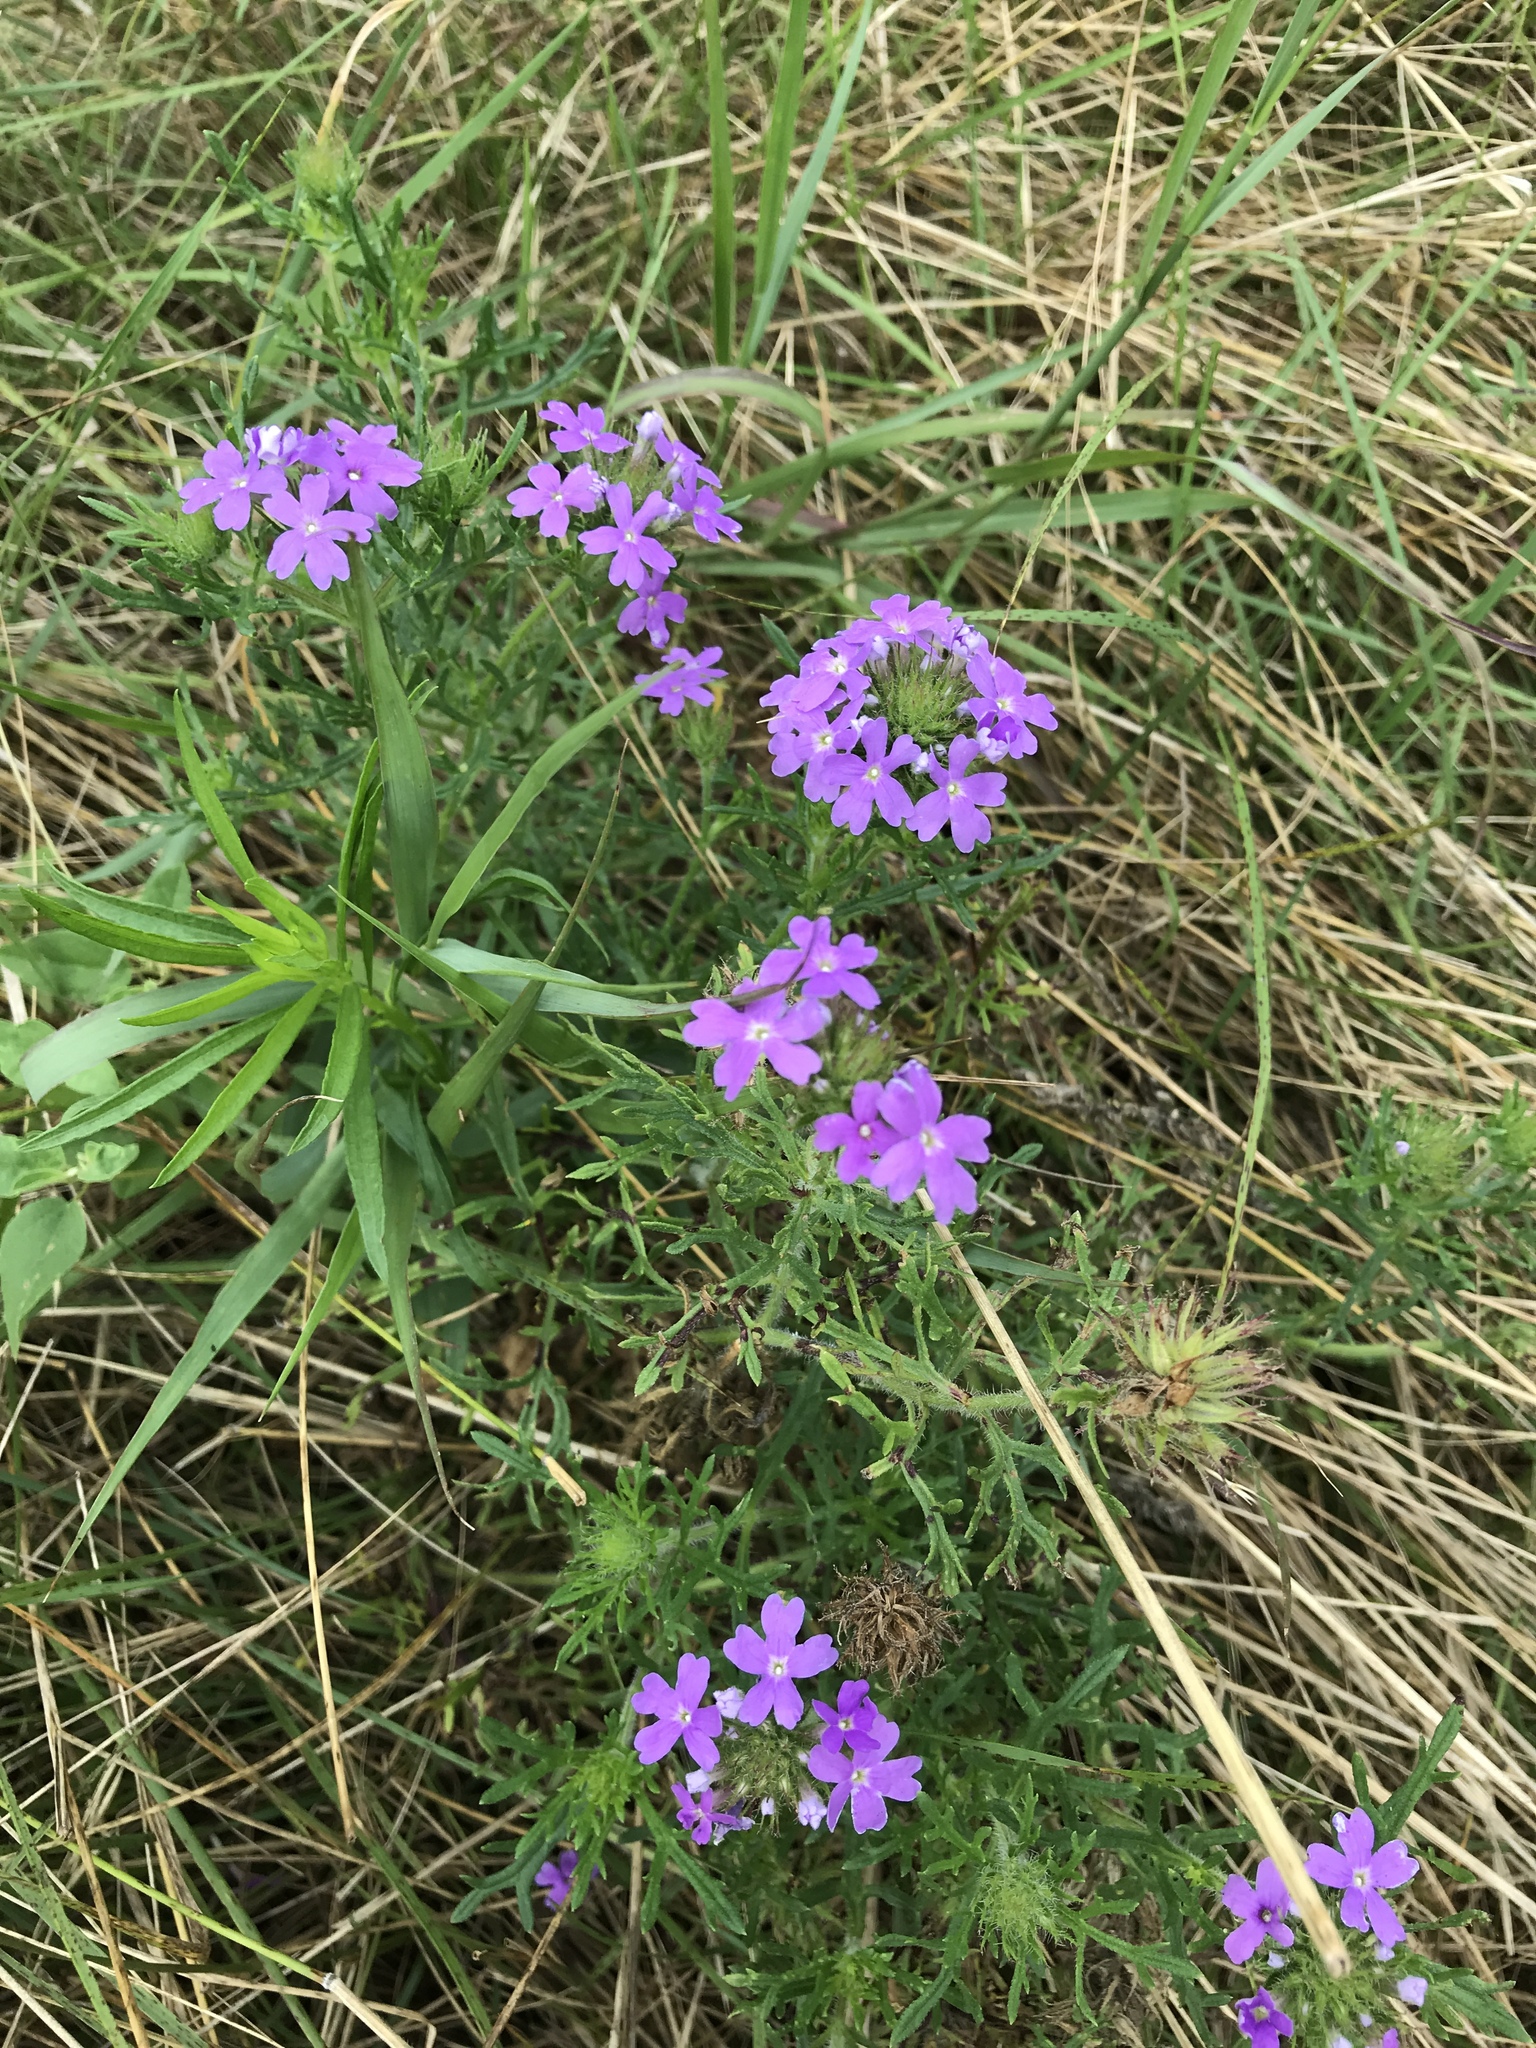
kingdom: Plantae
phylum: Tracheophyta
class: Magnoliopsida
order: Lamiales
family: Verbenaceae
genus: Verbena
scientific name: Verbena bipinnatifida
